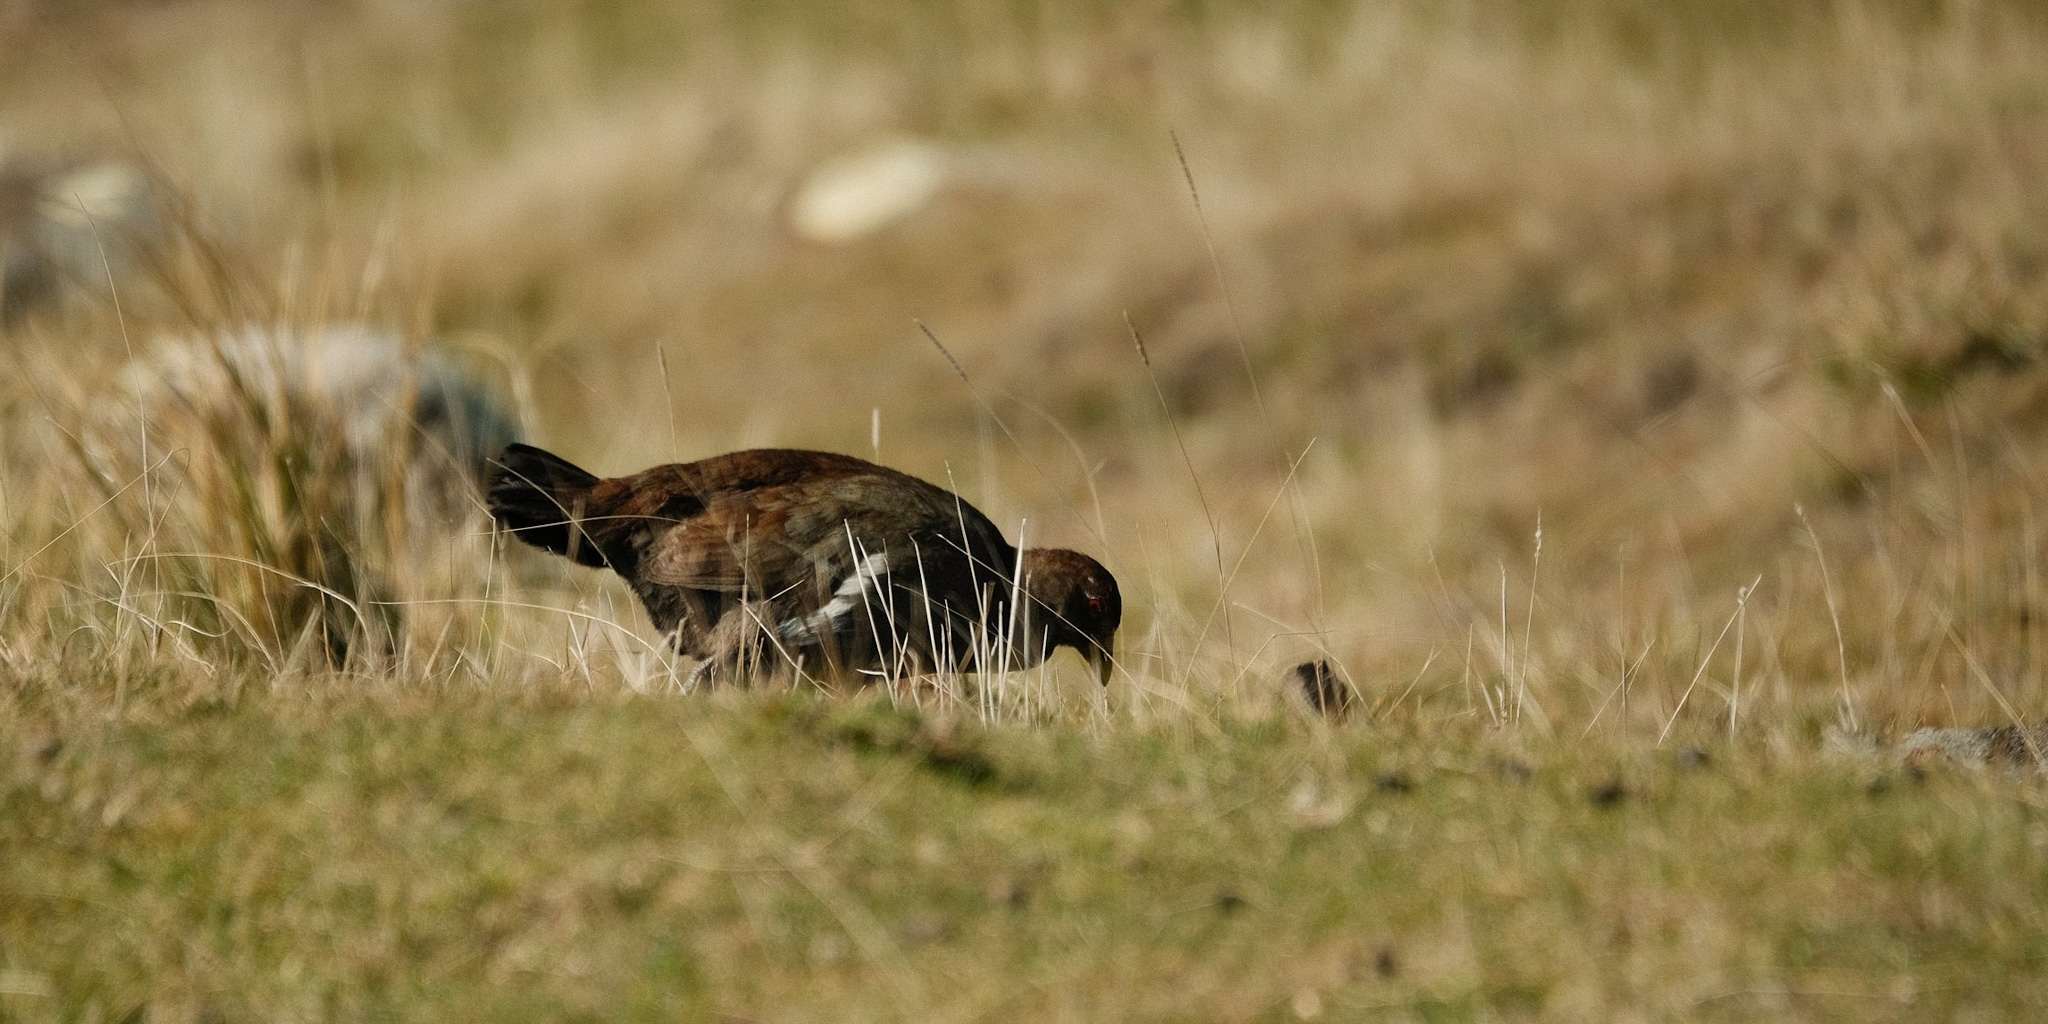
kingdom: Animalia
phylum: Chordata
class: Aves
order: Gruiformes
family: Rallidae
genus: Gallinula
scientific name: Gallinula mortierii
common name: Tasmanian nativehen
